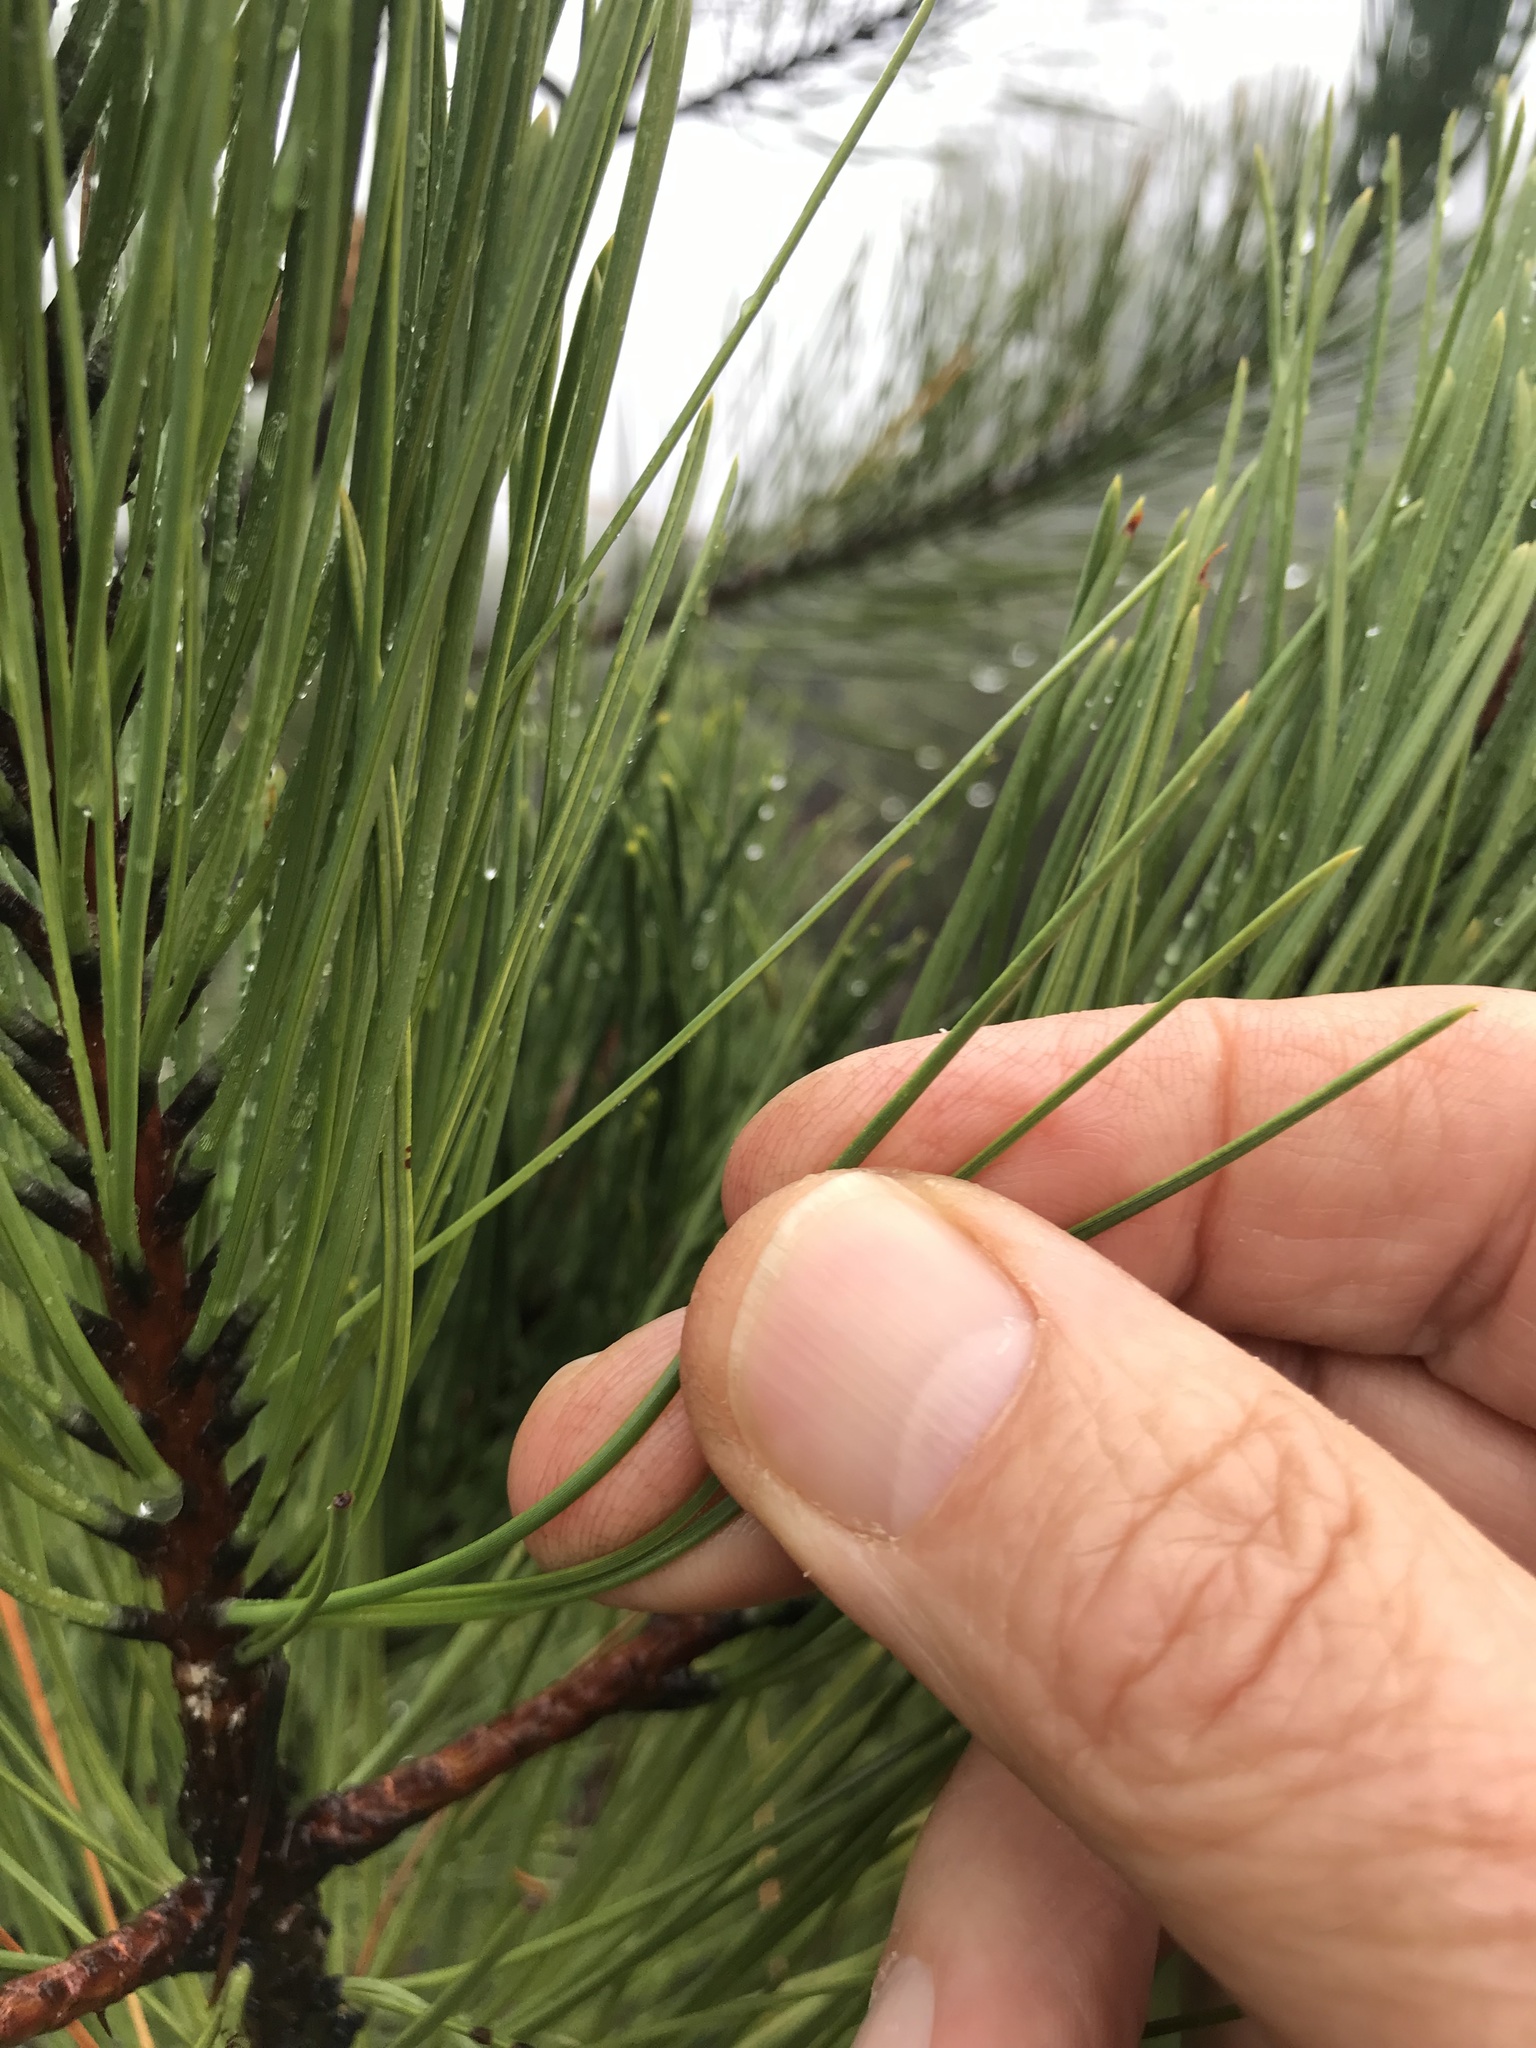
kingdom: Plantae
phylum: Tracheophyta
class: Pinopsida
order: Pinales
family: Pinaceae
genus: Pinus
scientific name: Pinus attenuata
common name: Knobcone pine
